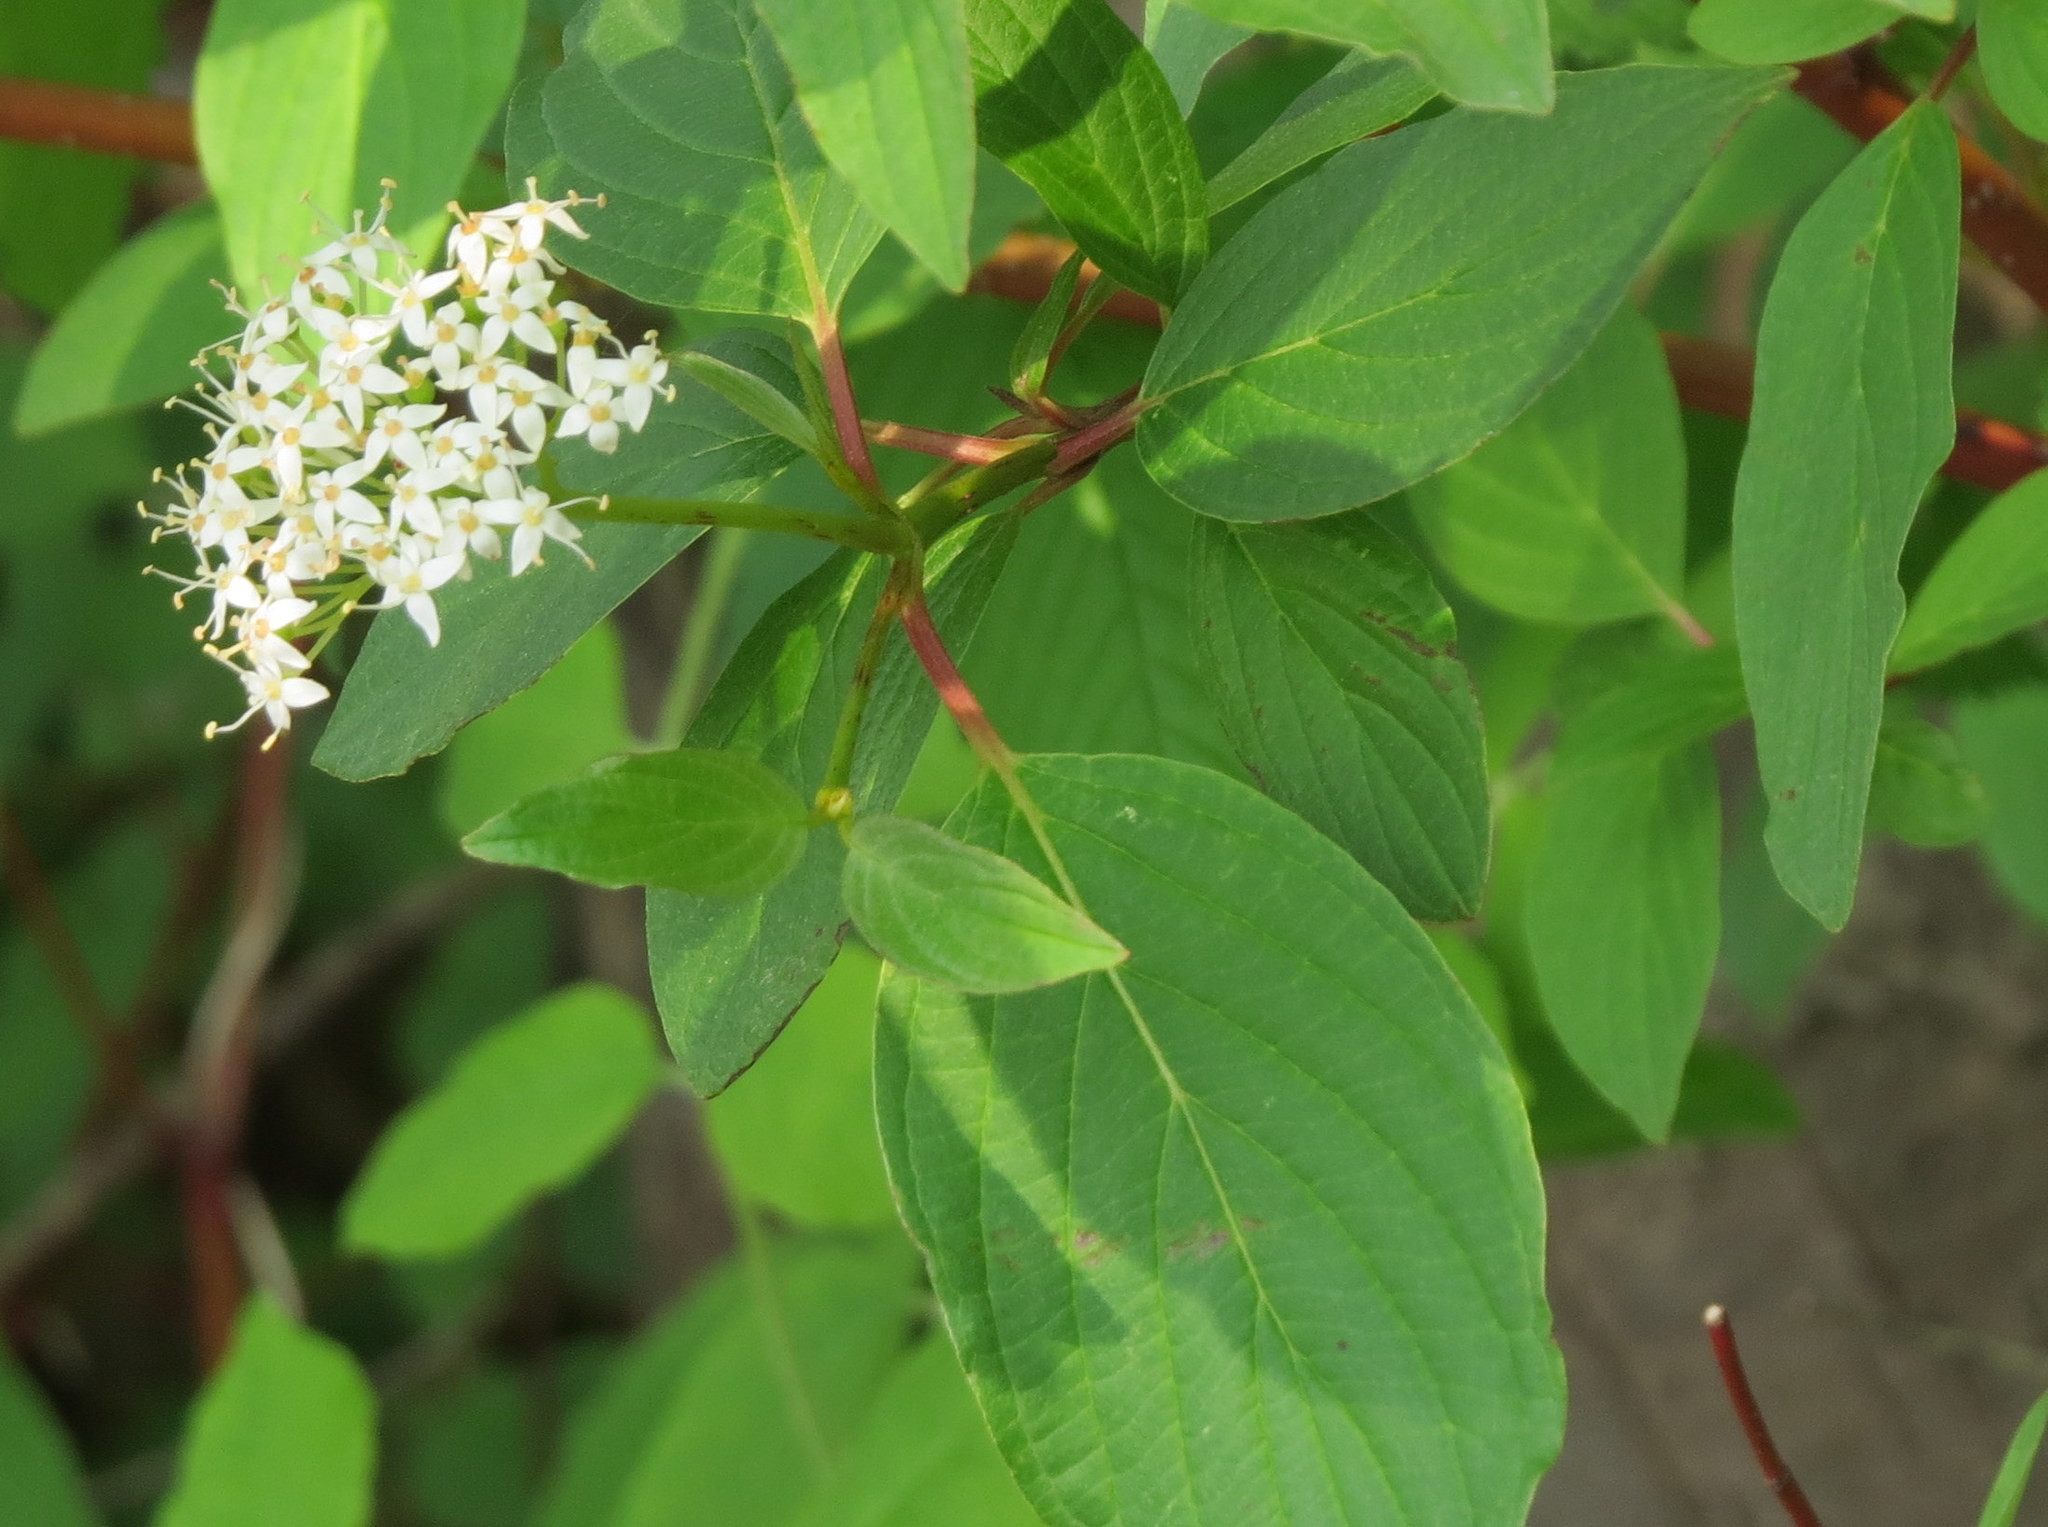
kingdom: Plantae
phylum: Tracheophyta
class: Magnoliopsida
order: Cornales
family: Cornaceae
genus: Cornus
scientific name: Cornus sericea
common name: Red-osier dogwood
